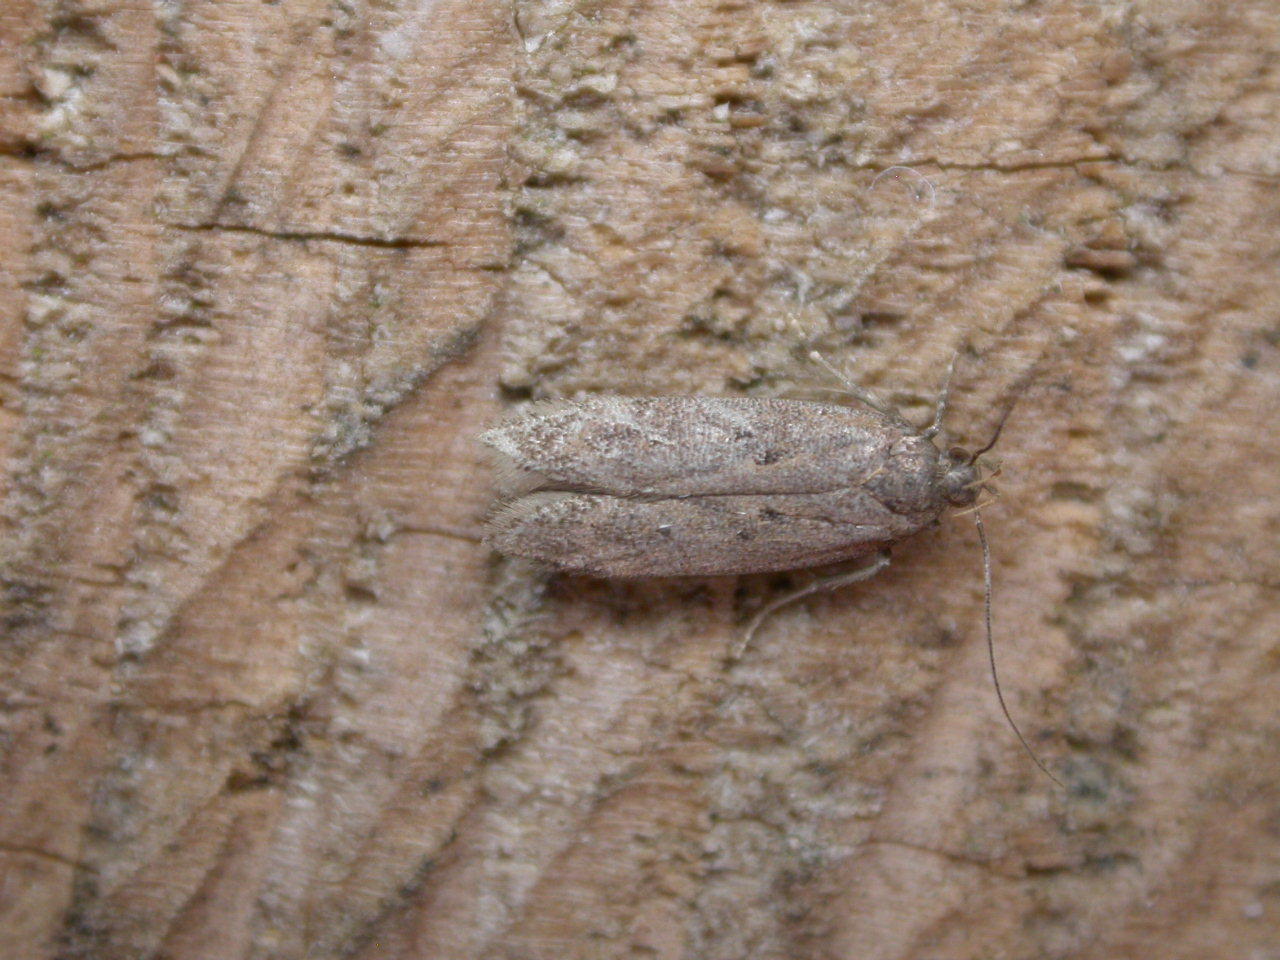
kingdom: Animalia
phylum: Arthropoda
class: Insecta
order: Lepidoptera
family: Gelechiidae
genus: Bryotropha
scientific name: Bryotropha terrella
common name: Cinerous groundling
